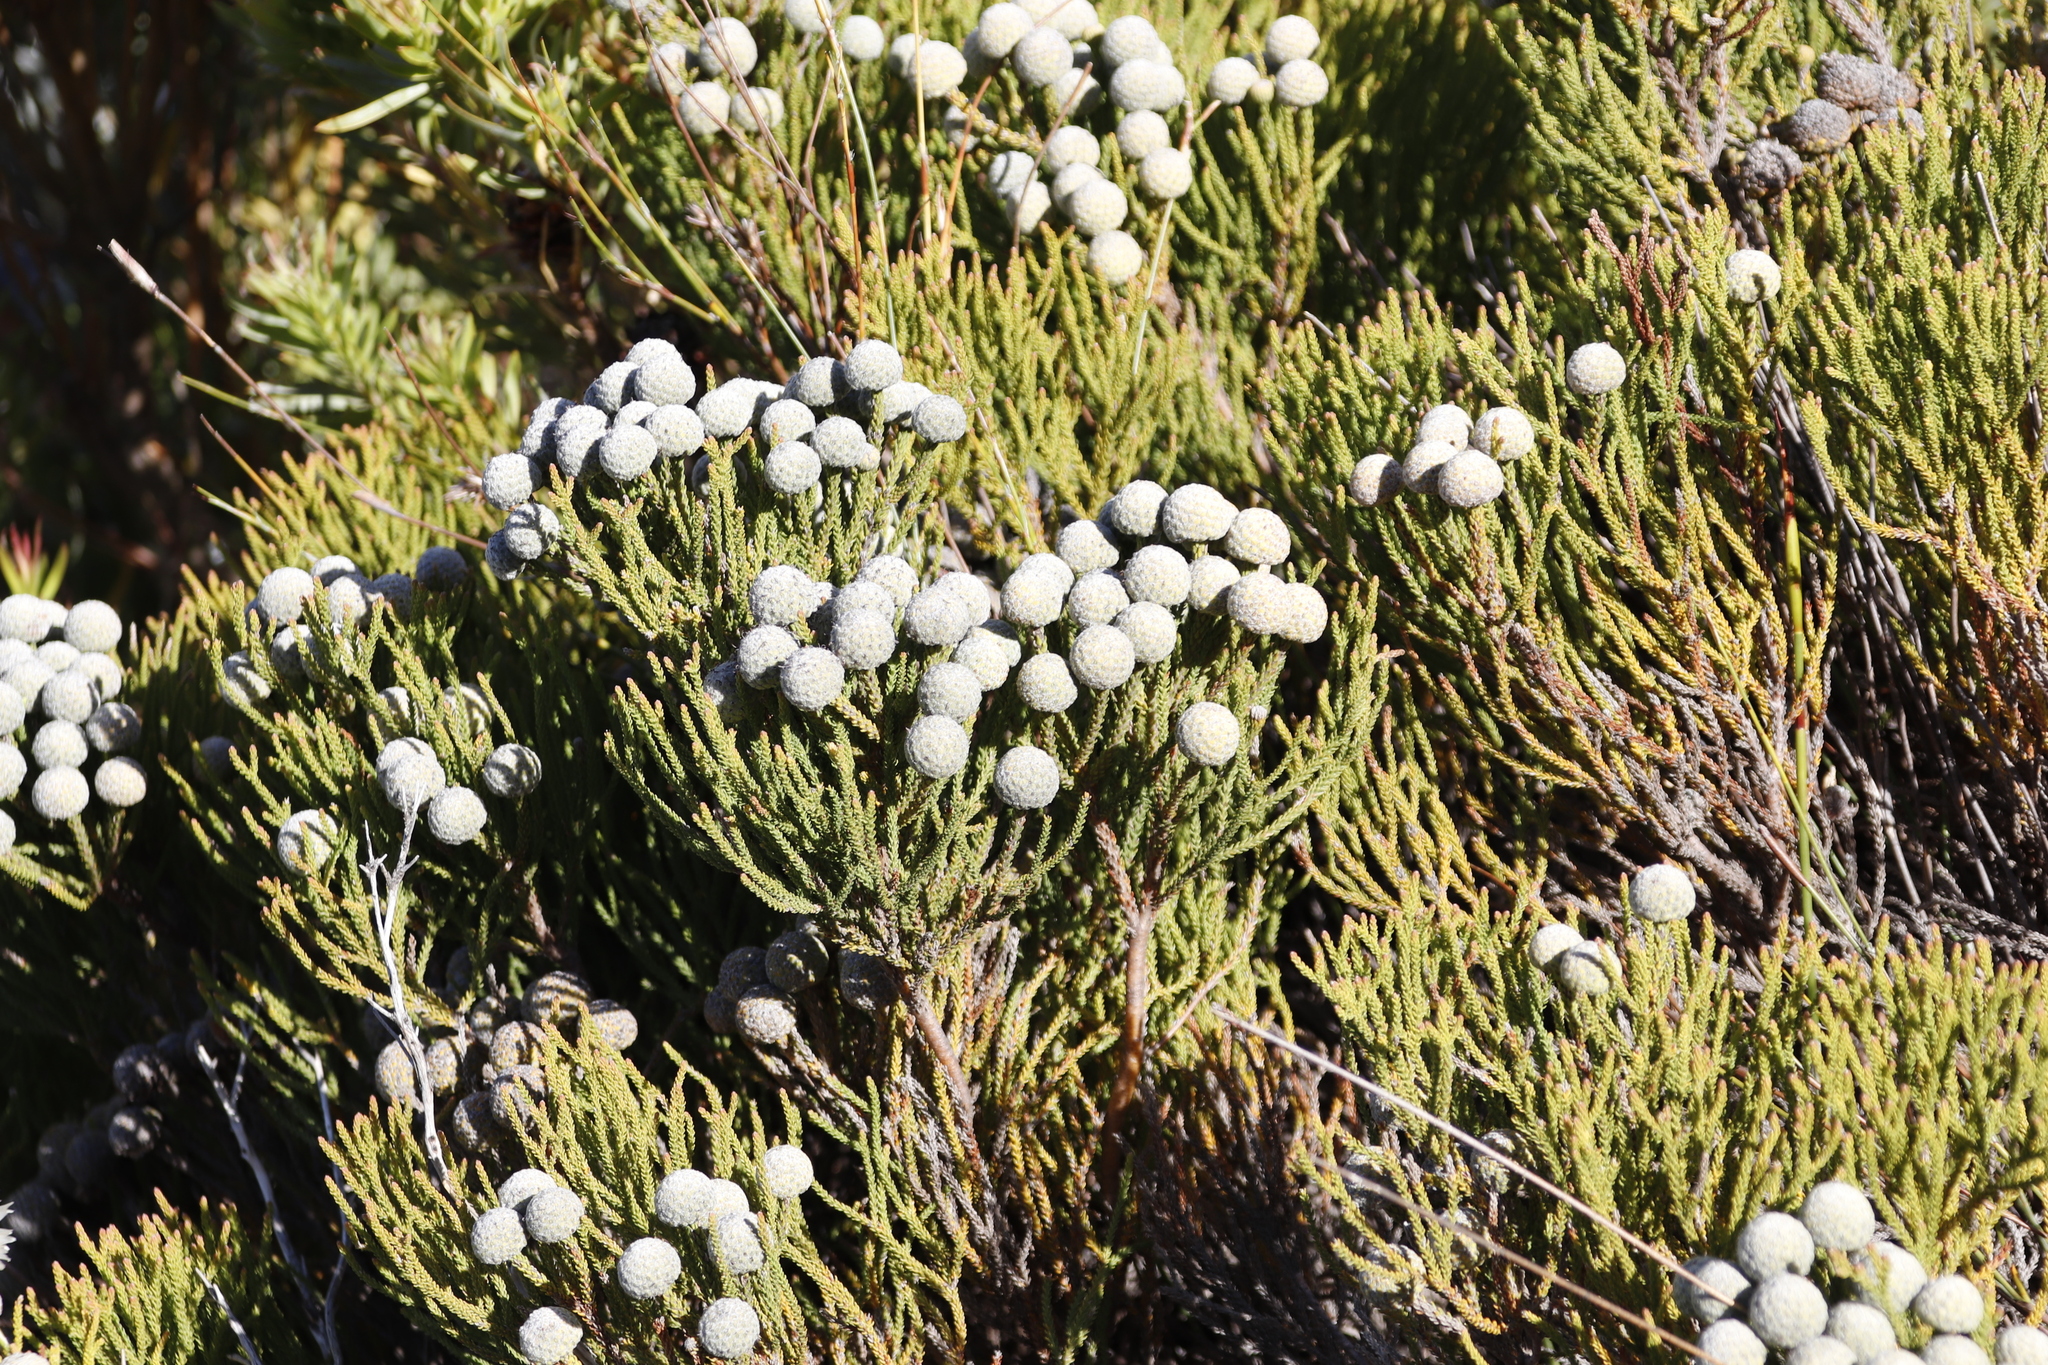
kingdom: Plantae
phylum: Tracheophyta
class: Magnoliopsida
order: Bruniales
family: Bruniaceae
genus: Brunia
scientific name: Brunia noduliflora
